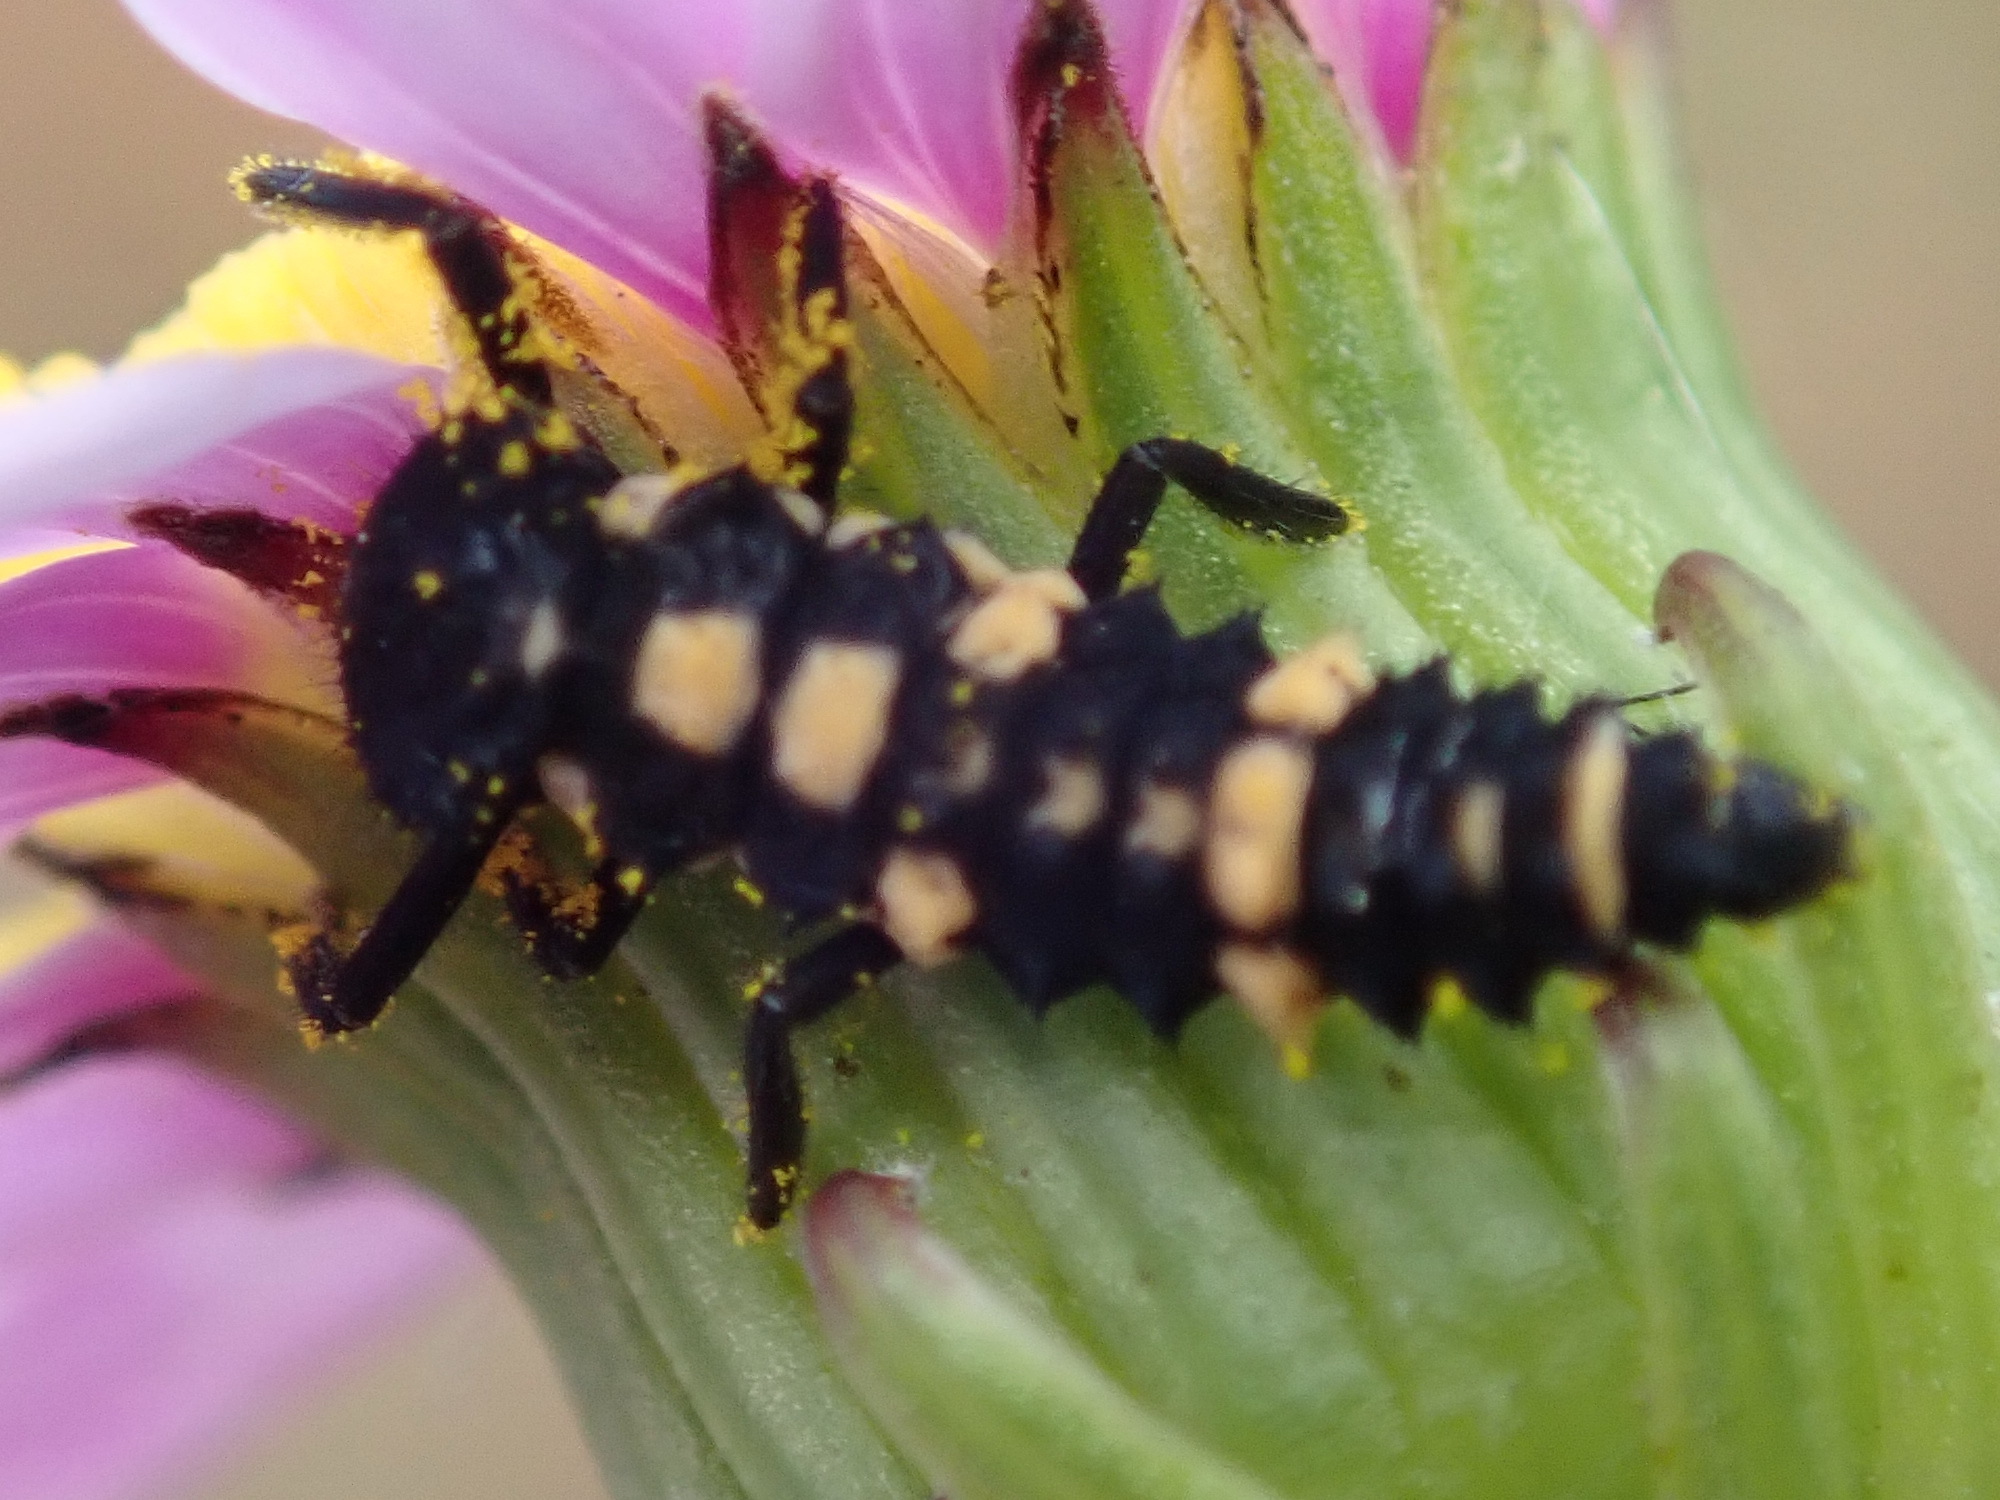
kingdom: Animalia
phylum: Arthropoda
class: Insecta
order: Coleoptera
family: Coccinellidae
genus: Cheilomenes
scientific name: Cheilomenes lunata
